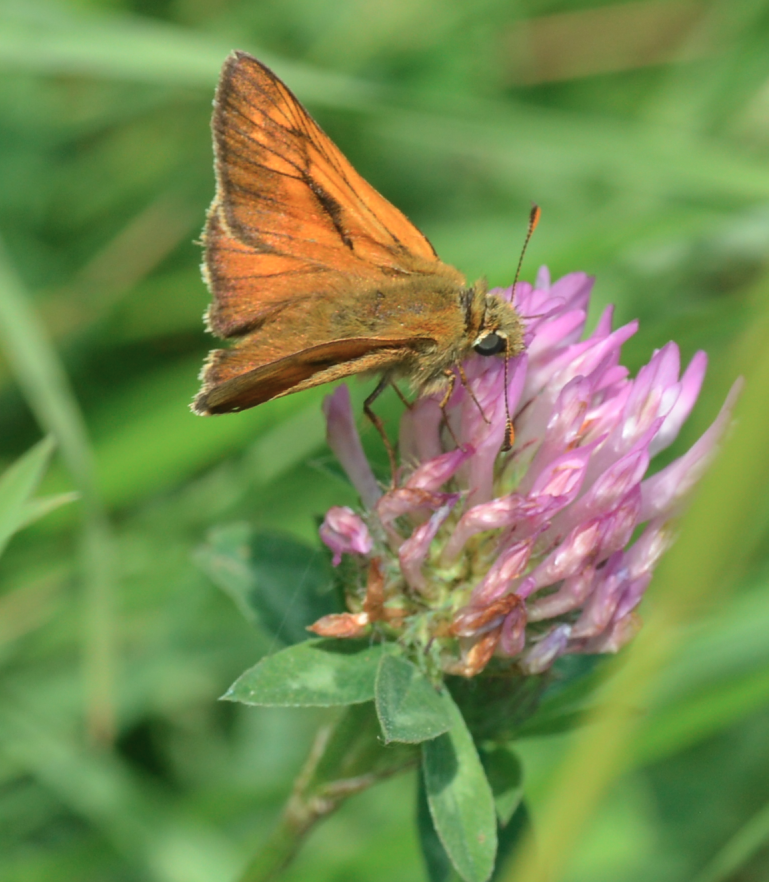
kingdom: Animalia
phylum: Arthropoda
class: Insecta
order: Lepidoptera
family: Hesperiidae
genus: Ochlodes
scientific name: Ochlodes venata
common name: Large skipper
